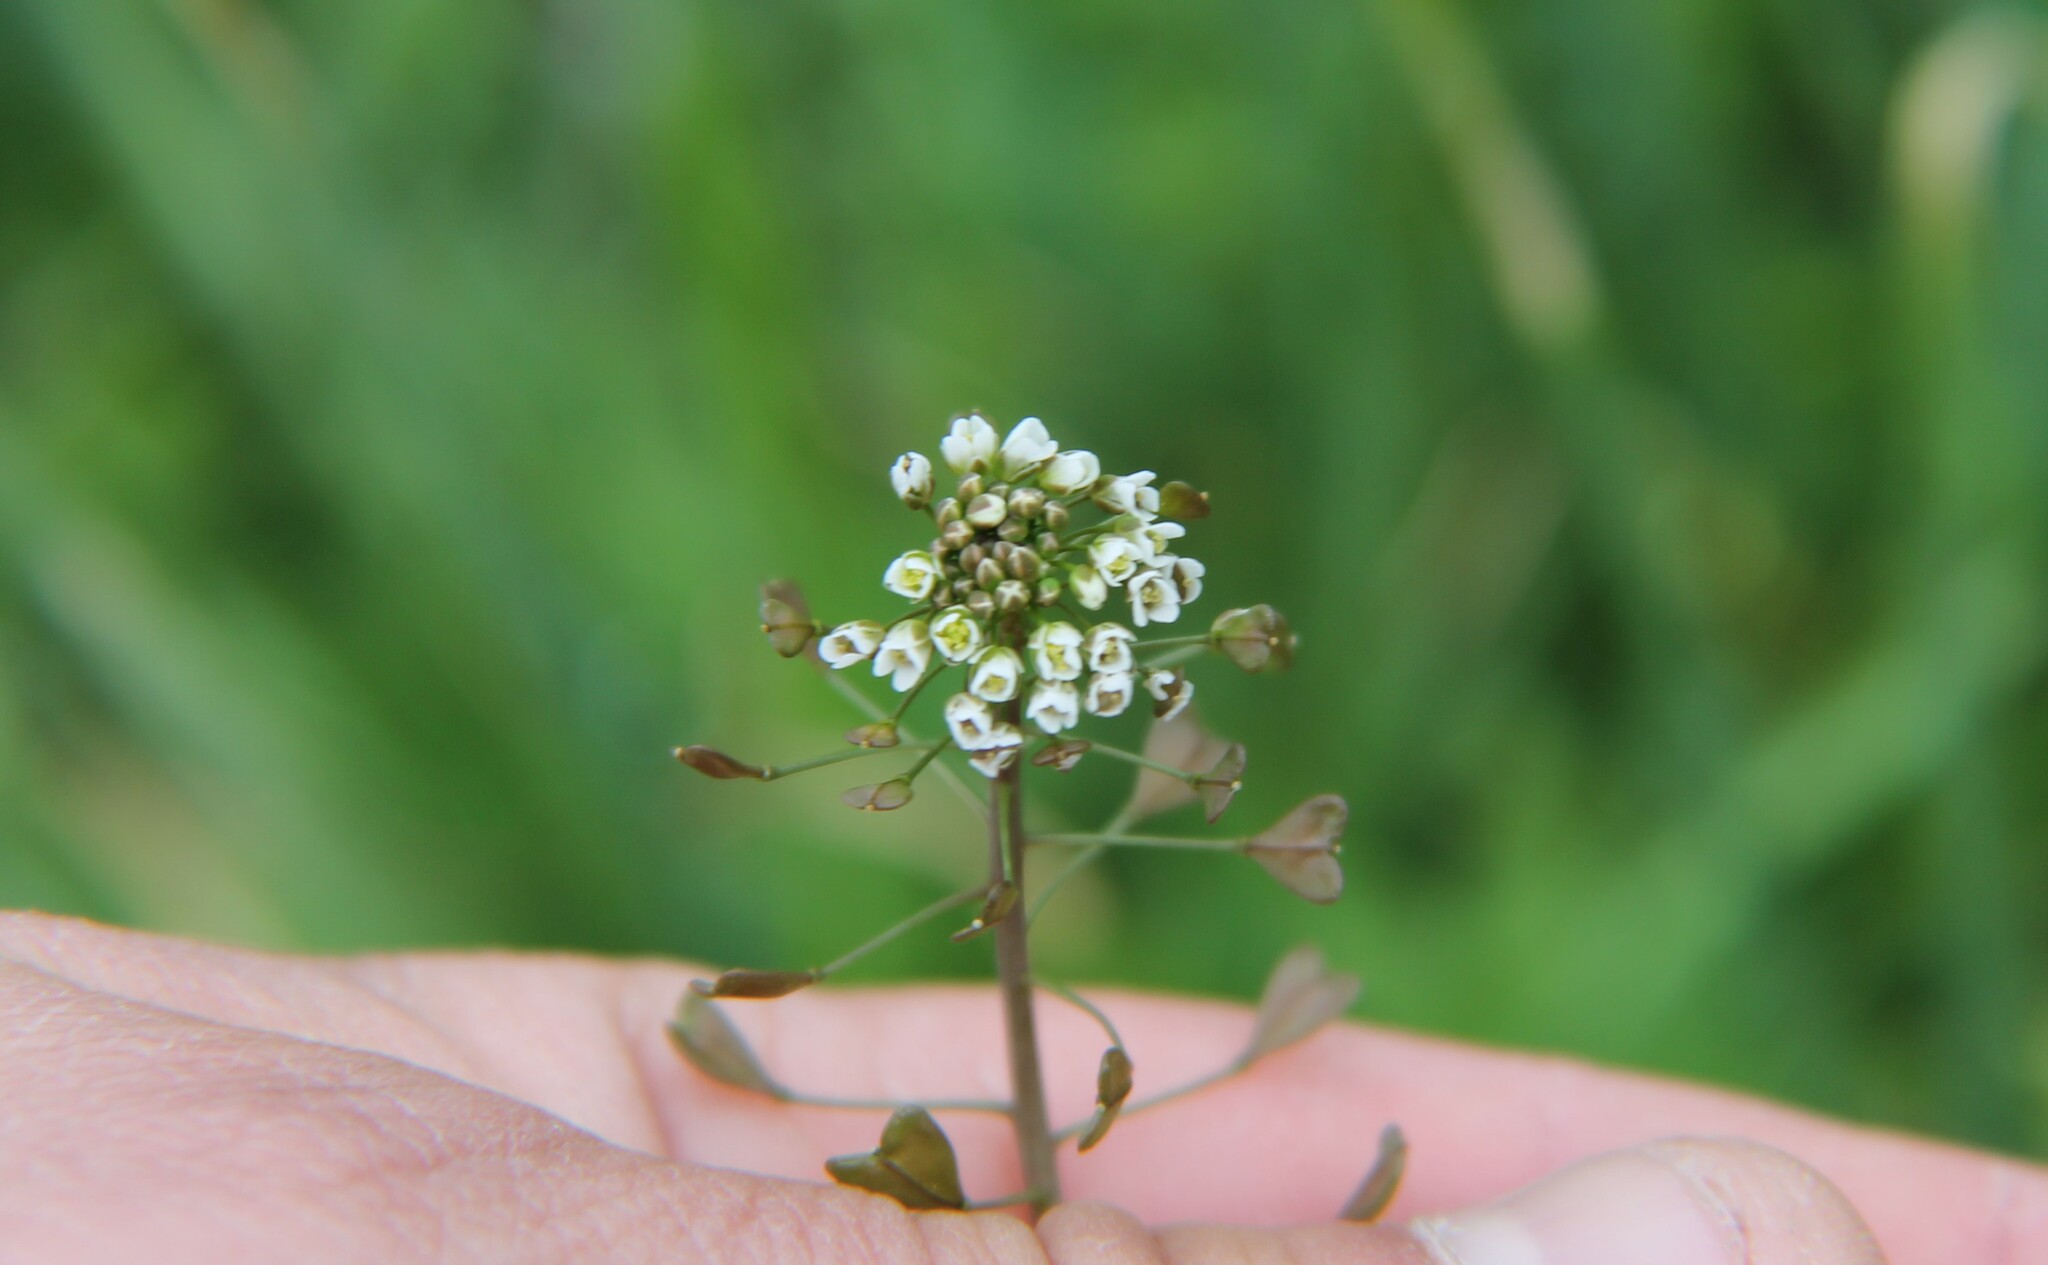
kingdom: Plantae
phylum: Tracheophyta
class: Magnoliopsida
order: Brassicales
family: Brassicaceae
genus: Capsella
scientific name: Capsella bursa-pastoris
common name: Shepherd's purse
